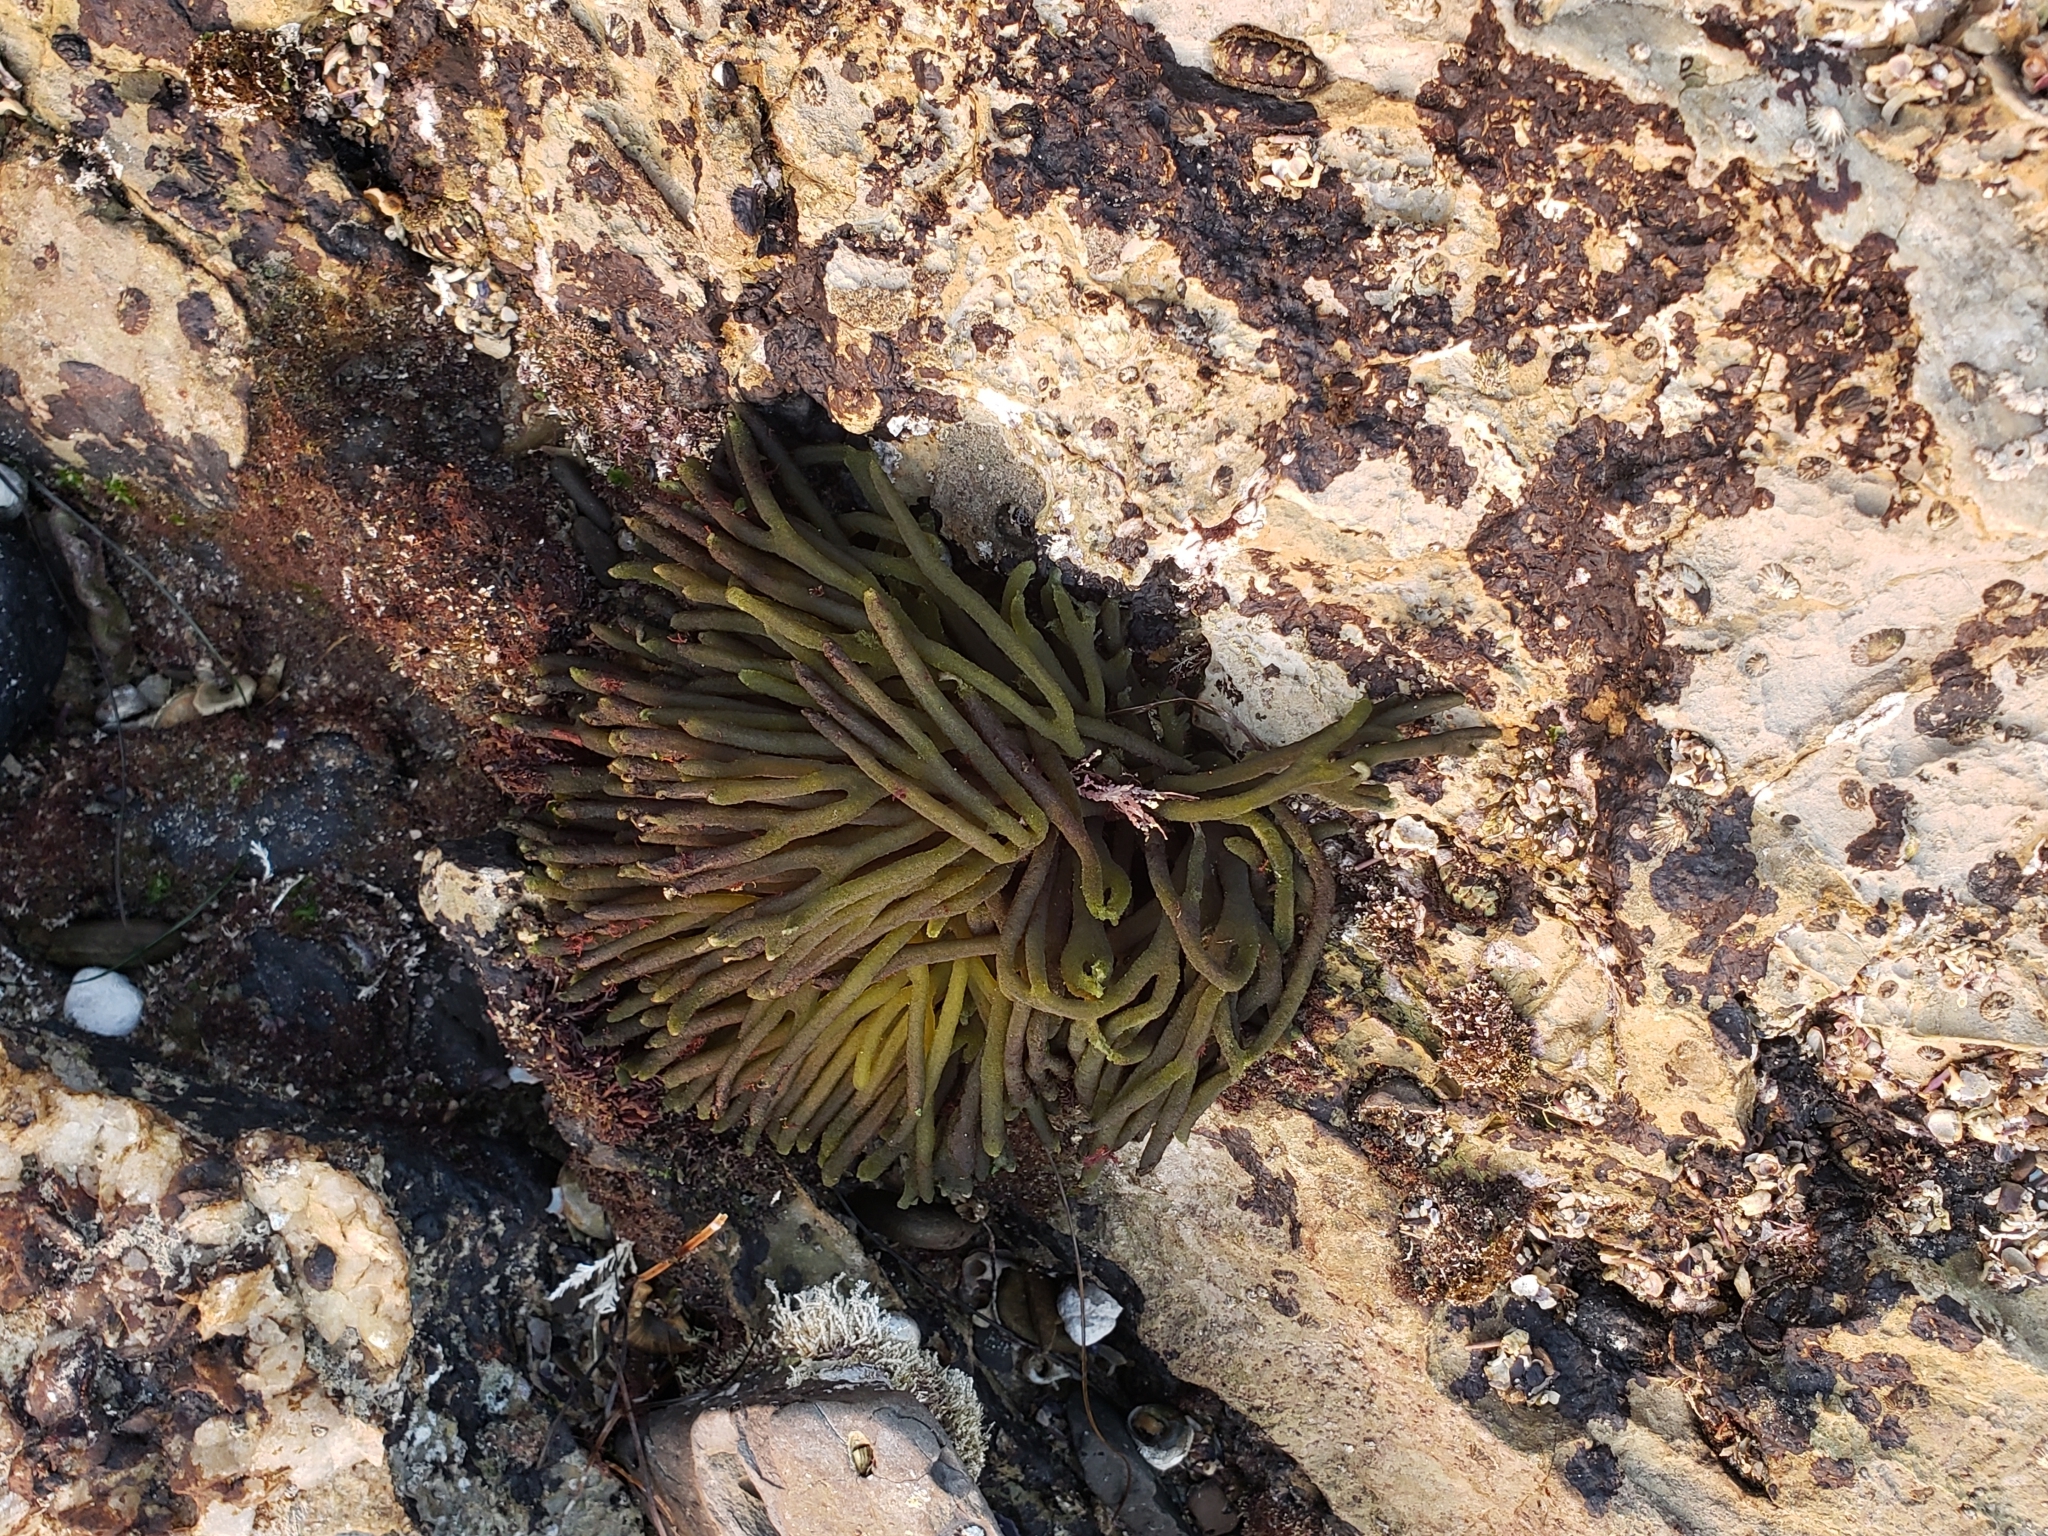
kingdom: Plantae
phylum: Chlorophyta
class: Ulvophyceae
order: Bryopsidales
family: Codiaceae
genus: Codium
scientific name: Codium fragile
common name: Dead man's fingers
